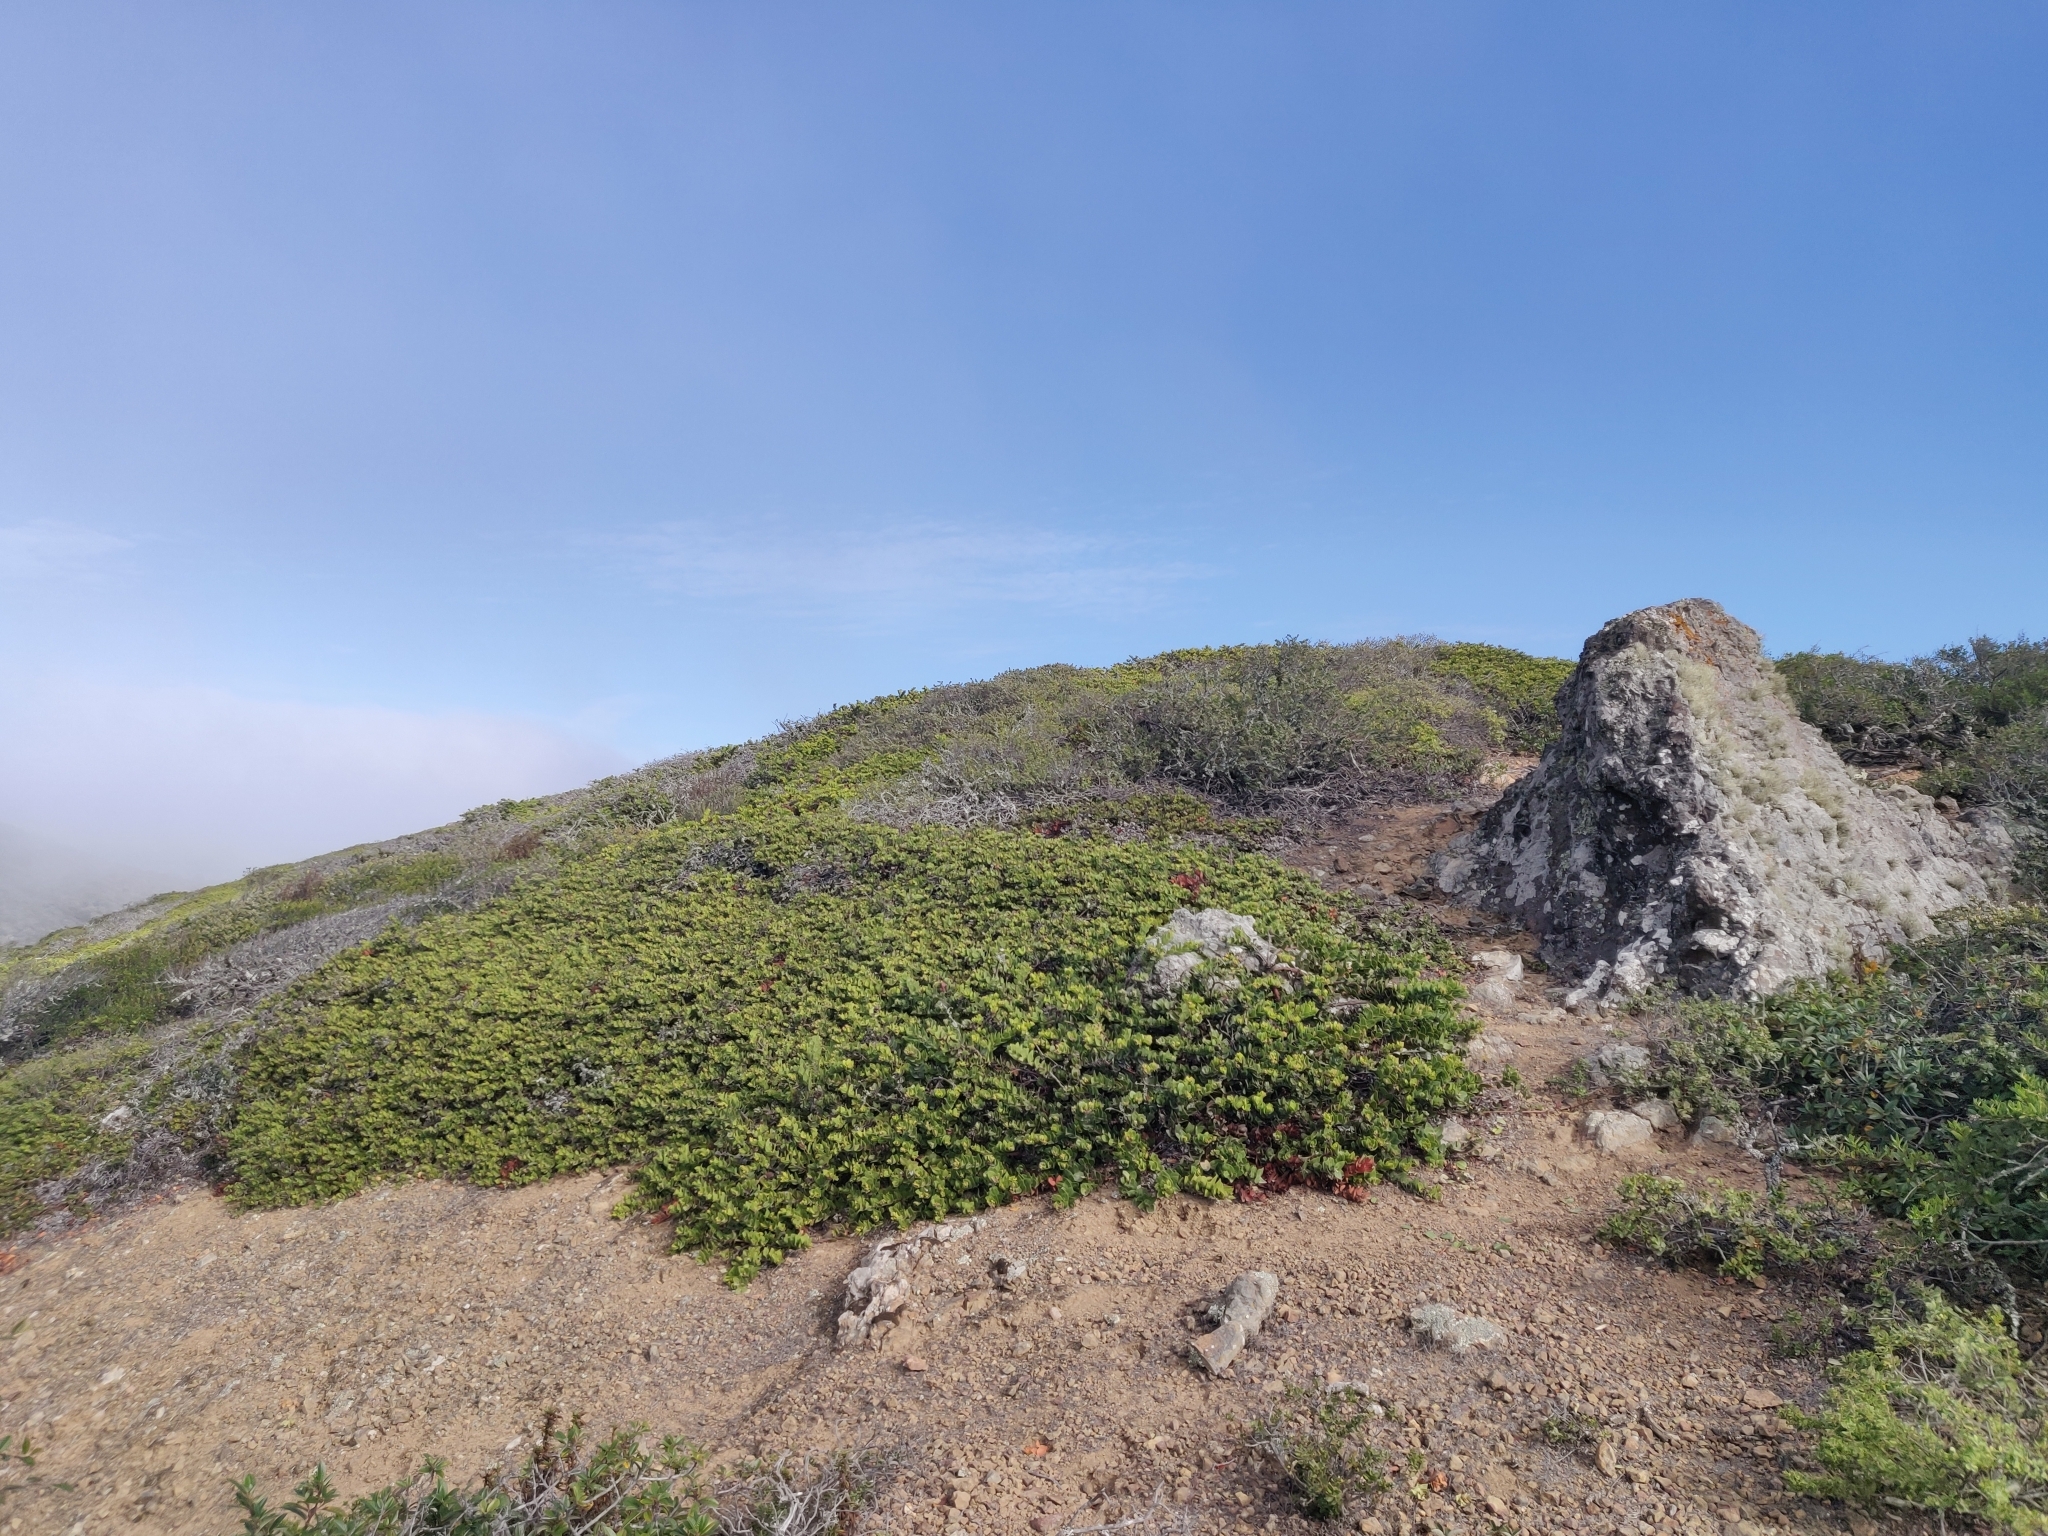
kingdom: Plantae
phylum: Tracheophyta
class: Magnoliopsida
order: Ericales
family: Ericaceae
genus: Arctostaphylos
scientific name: Arctostaphylos imbricata
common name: San bruno mountain manzanita
